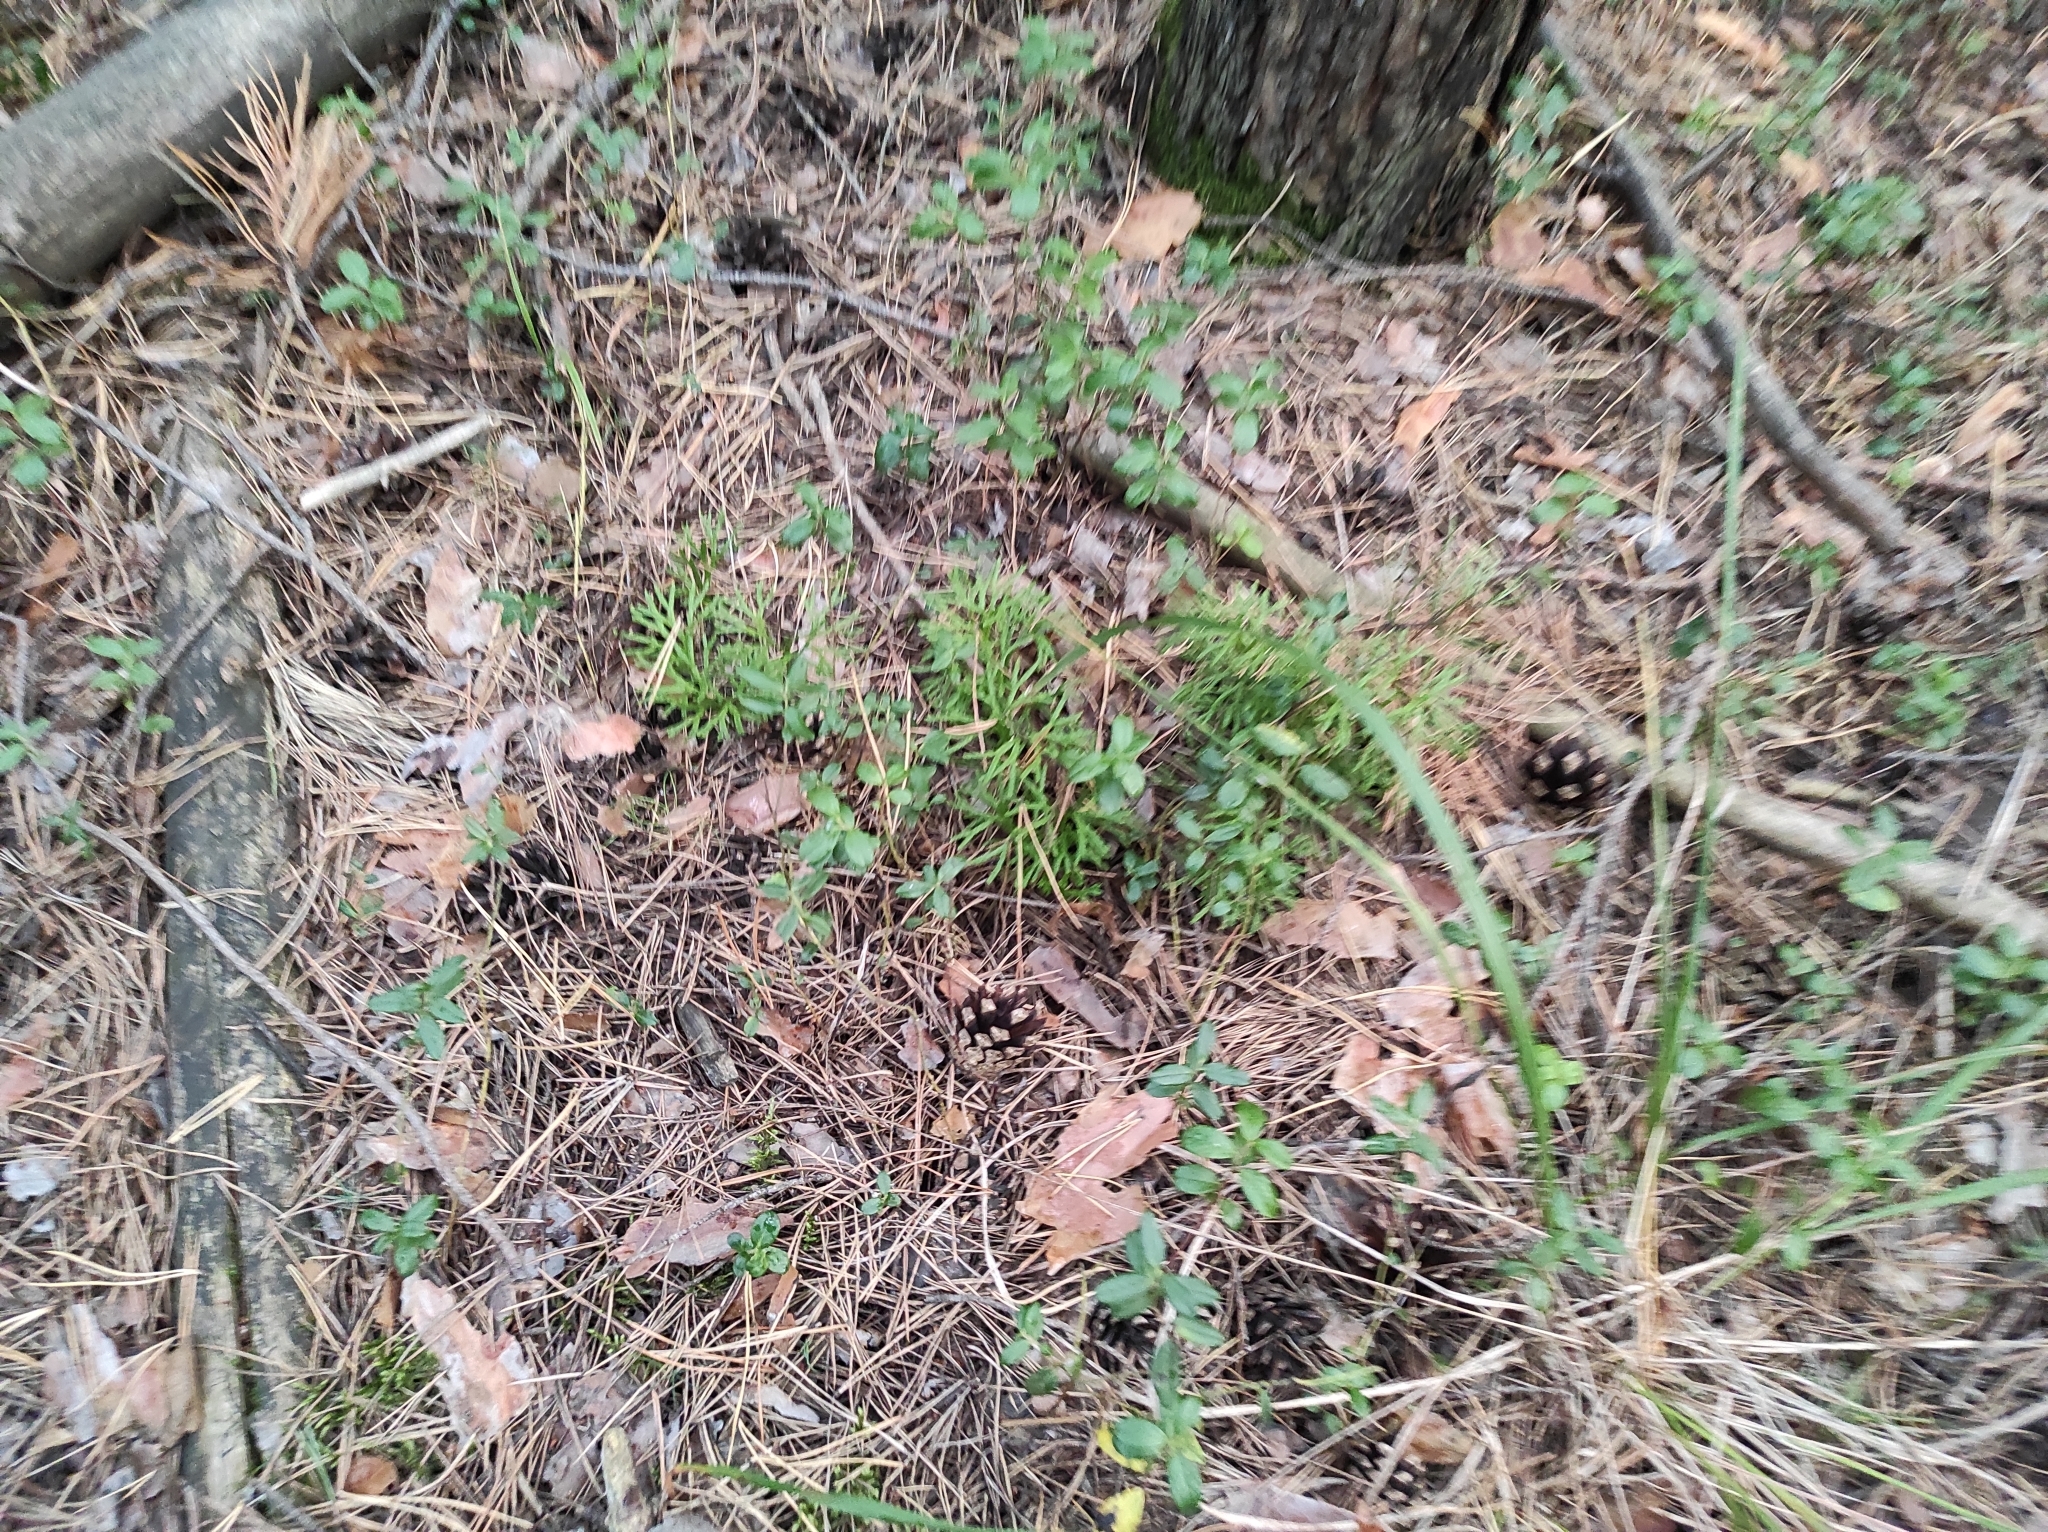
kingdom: Plantae
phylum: Tracheophyta
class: Lycopodiopsida
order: Lycopodiales
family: Lycopodiaceae
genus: Diphasiastrum
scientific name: Diphasiastrum complanatum
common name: Northern running-pine
